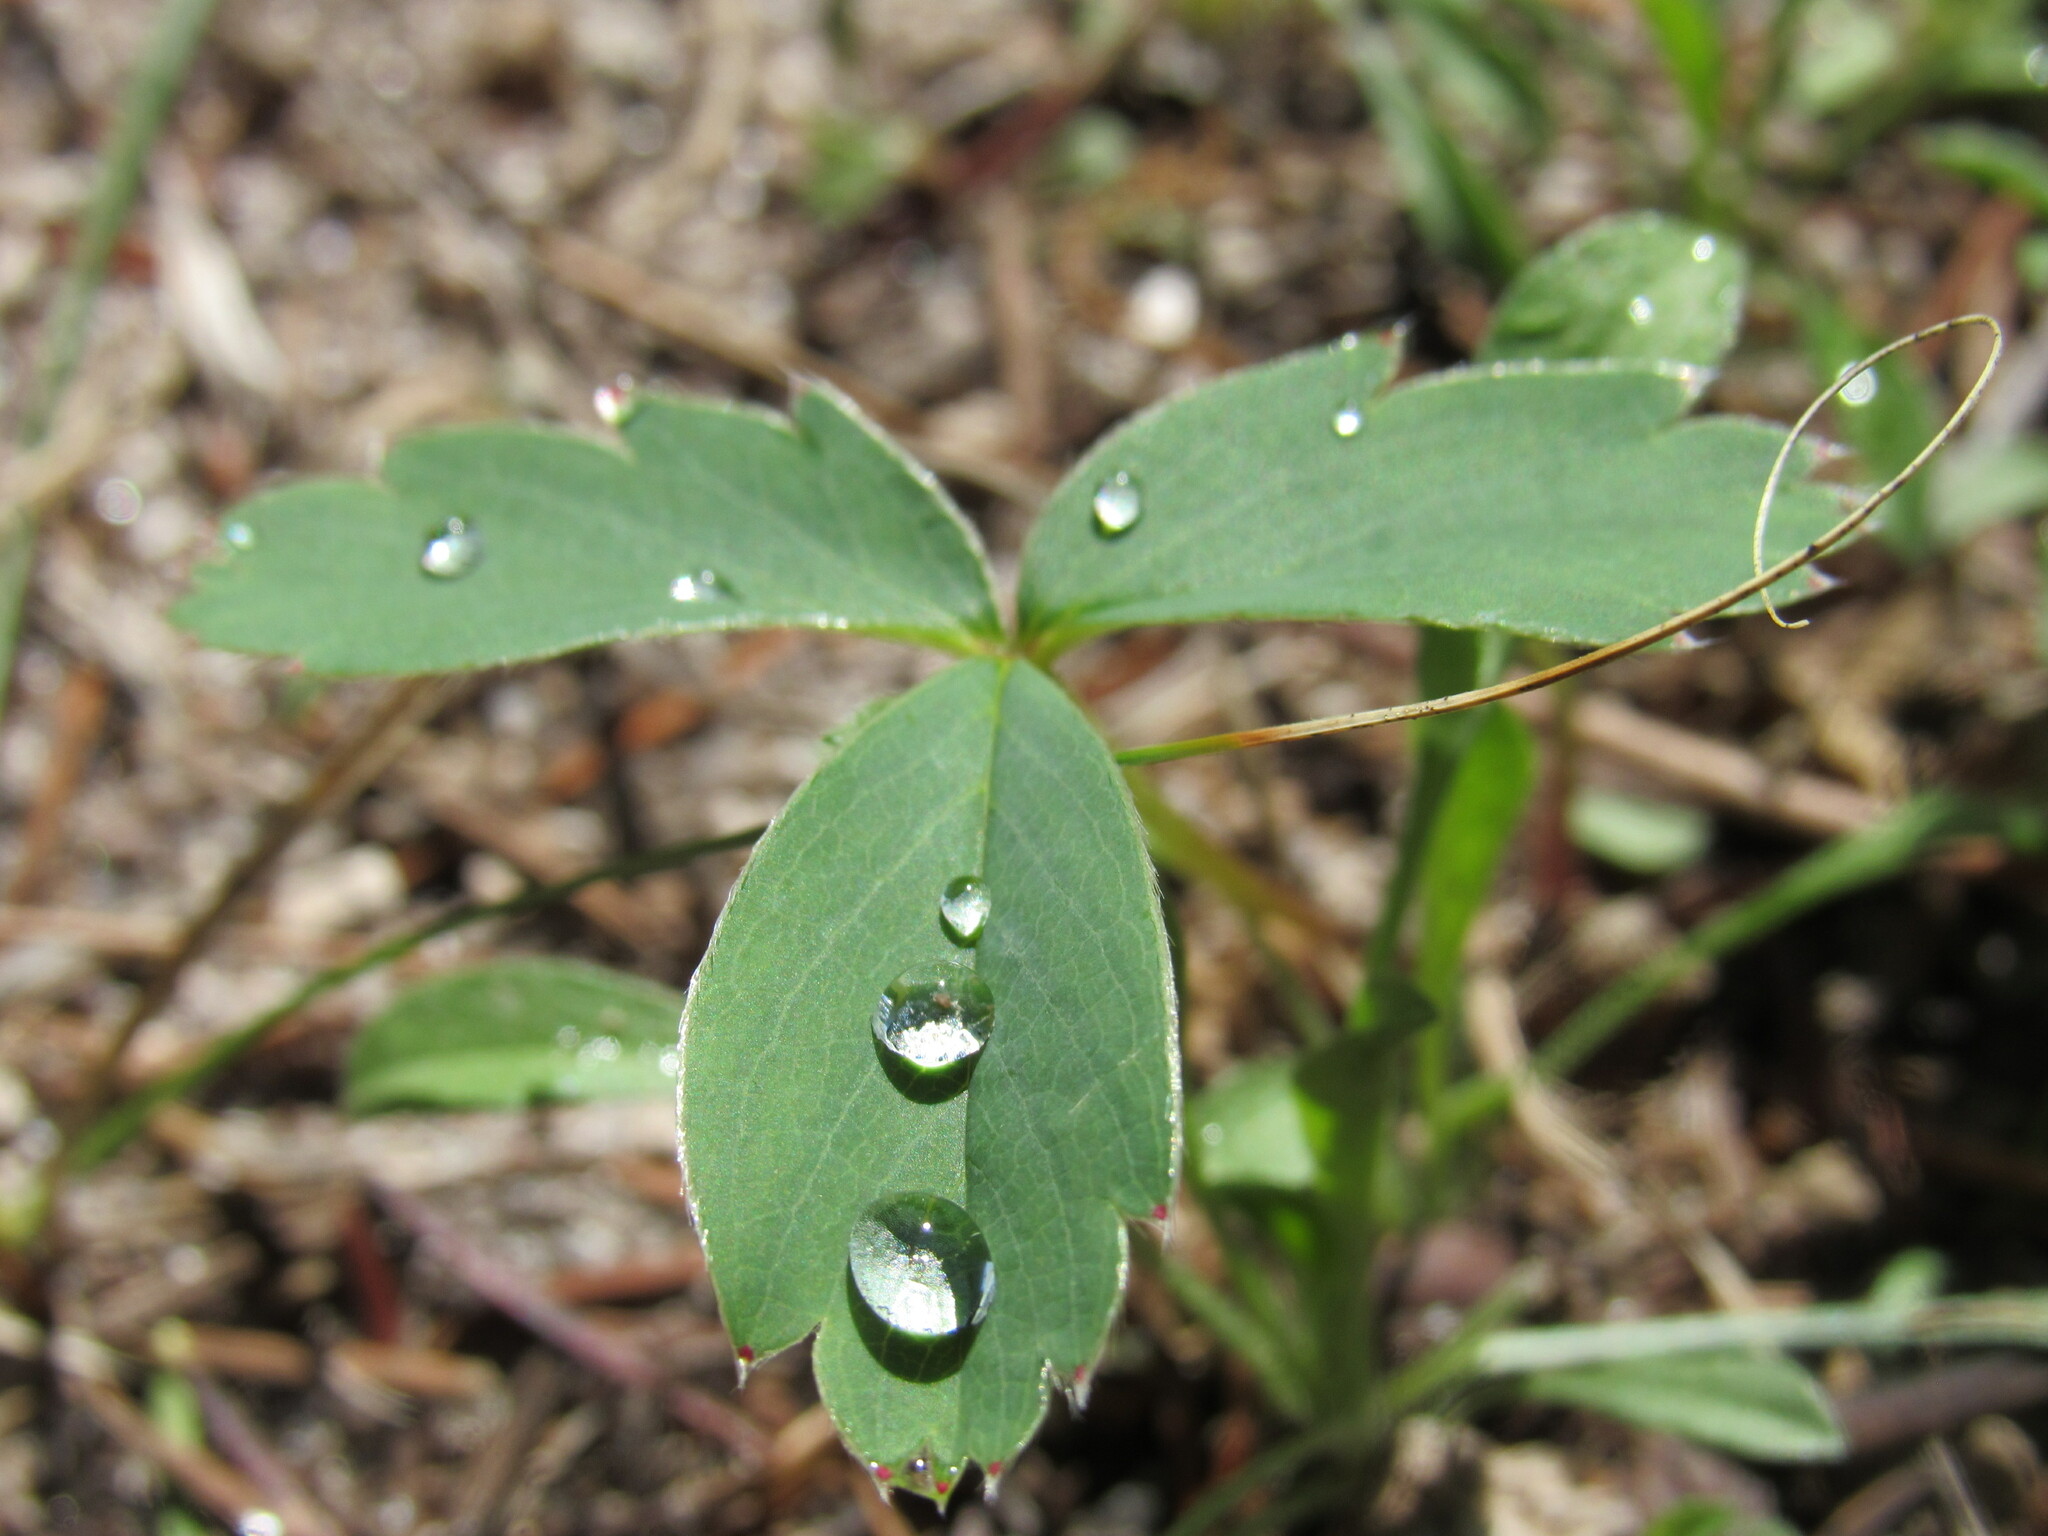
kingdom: Plantae
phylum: Tracheophyta
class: Magnoliopsida
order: Rosales
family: Rosaceae
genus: Fragaria
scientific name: Fragaria virginiana
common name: Thickleaved wild strawberry
